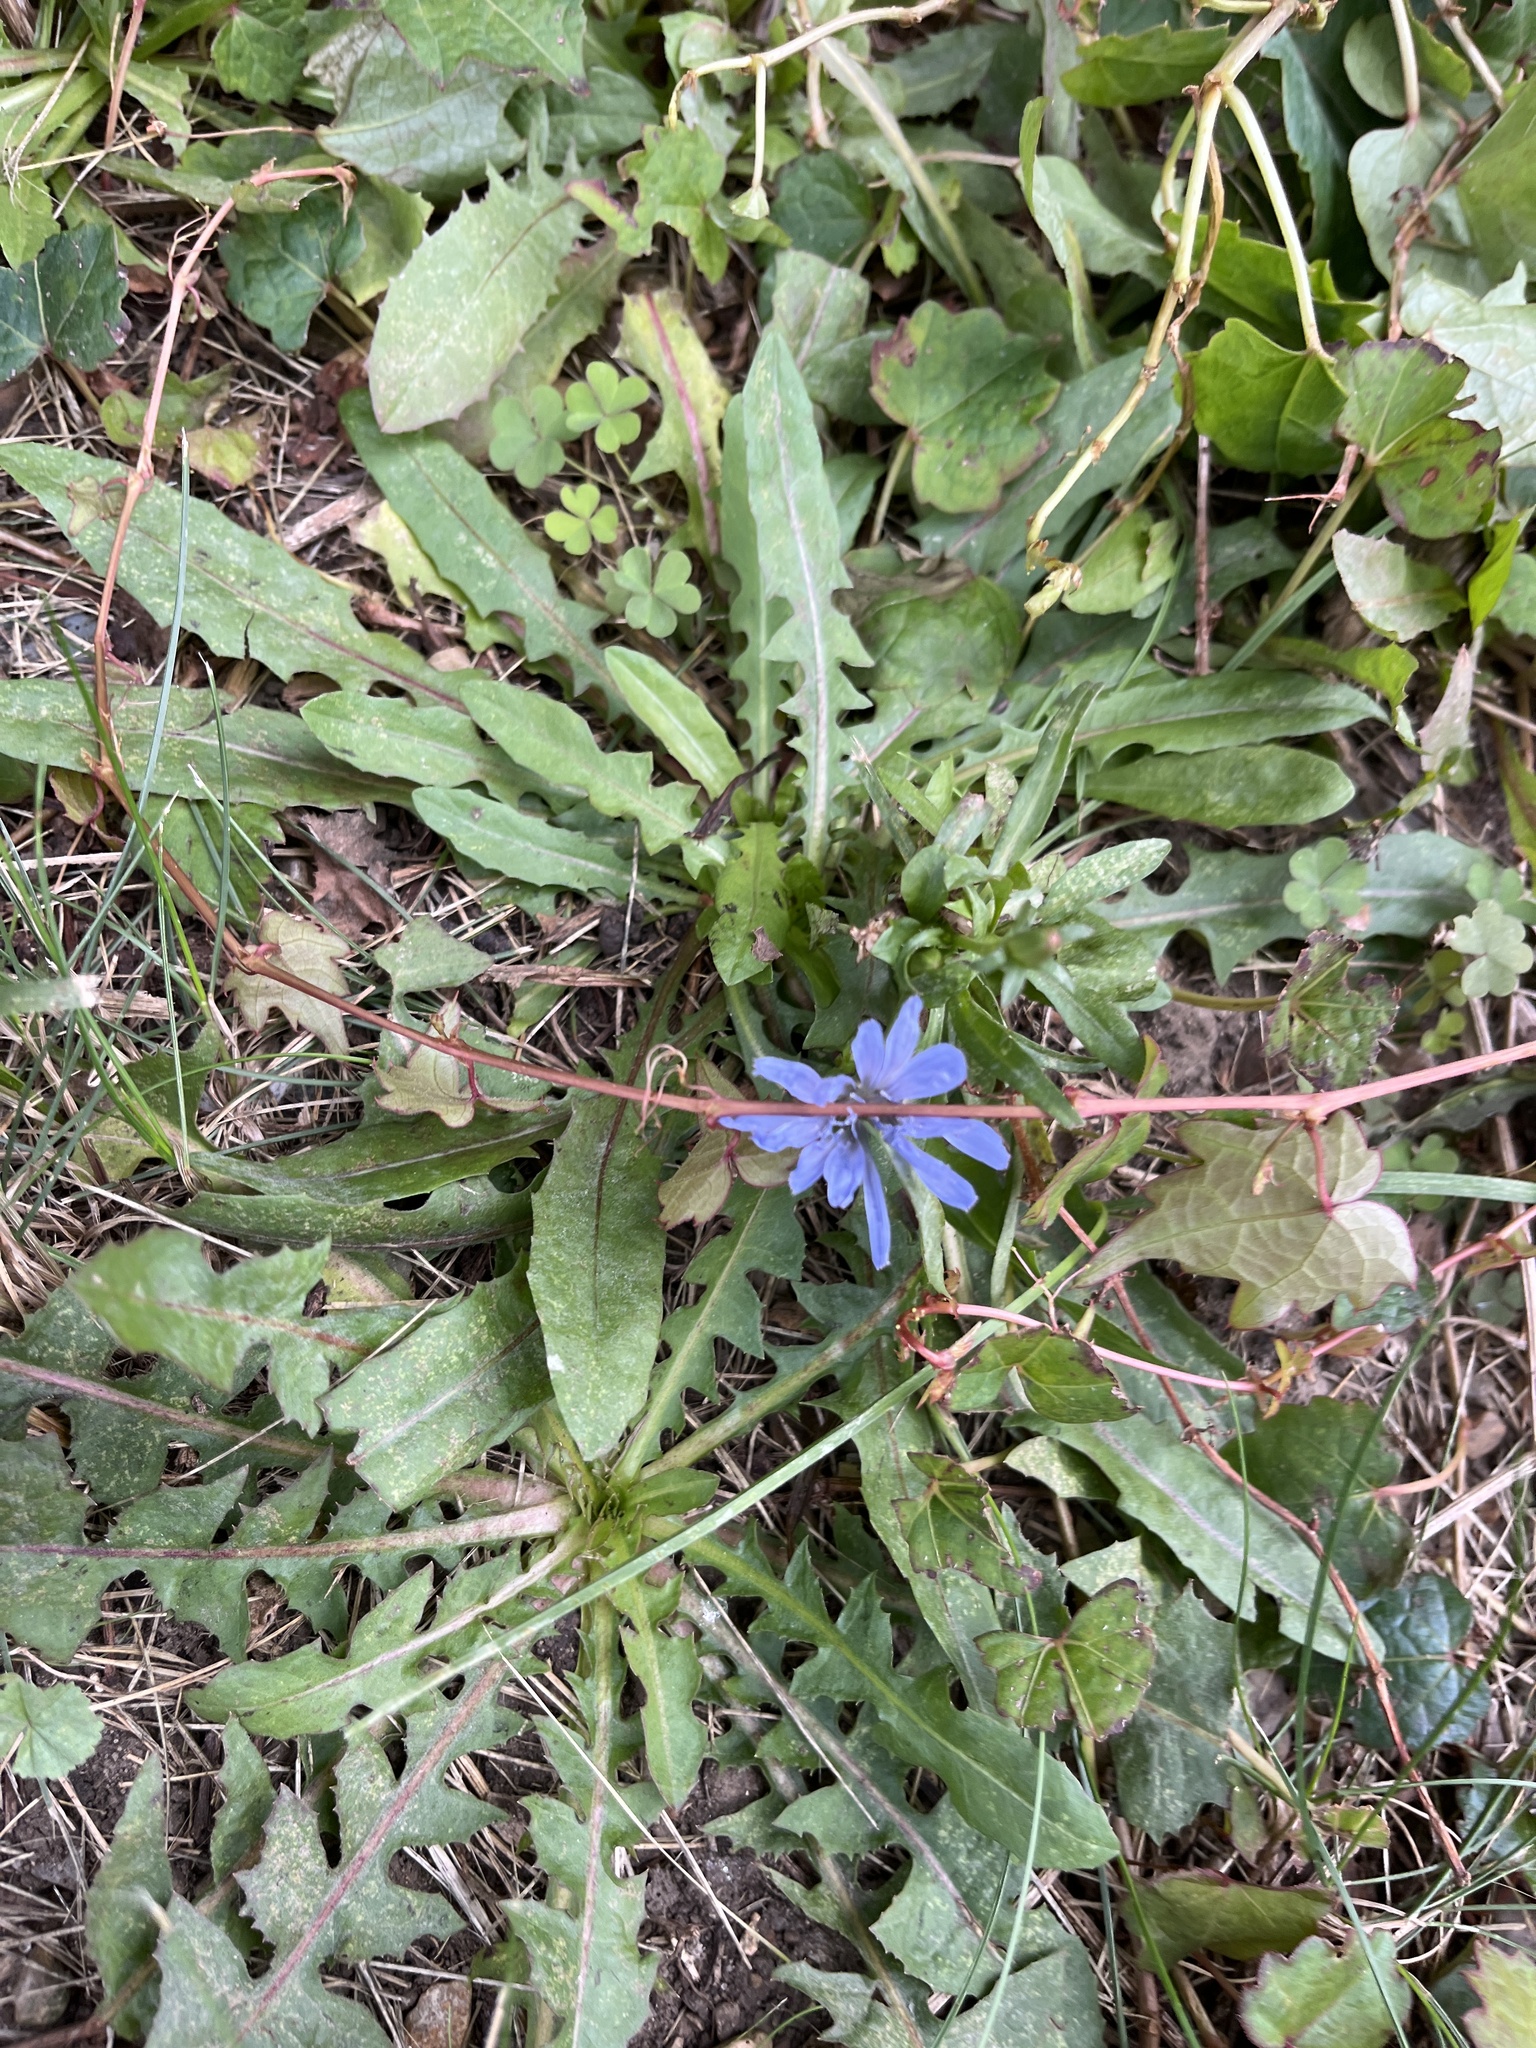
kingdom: Plantae
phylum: Tracheophyta
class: Magnoliopsida
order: Asterales
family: Asteraceae
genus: Cichorium
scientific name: Cichorium intybus
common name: Chicory
